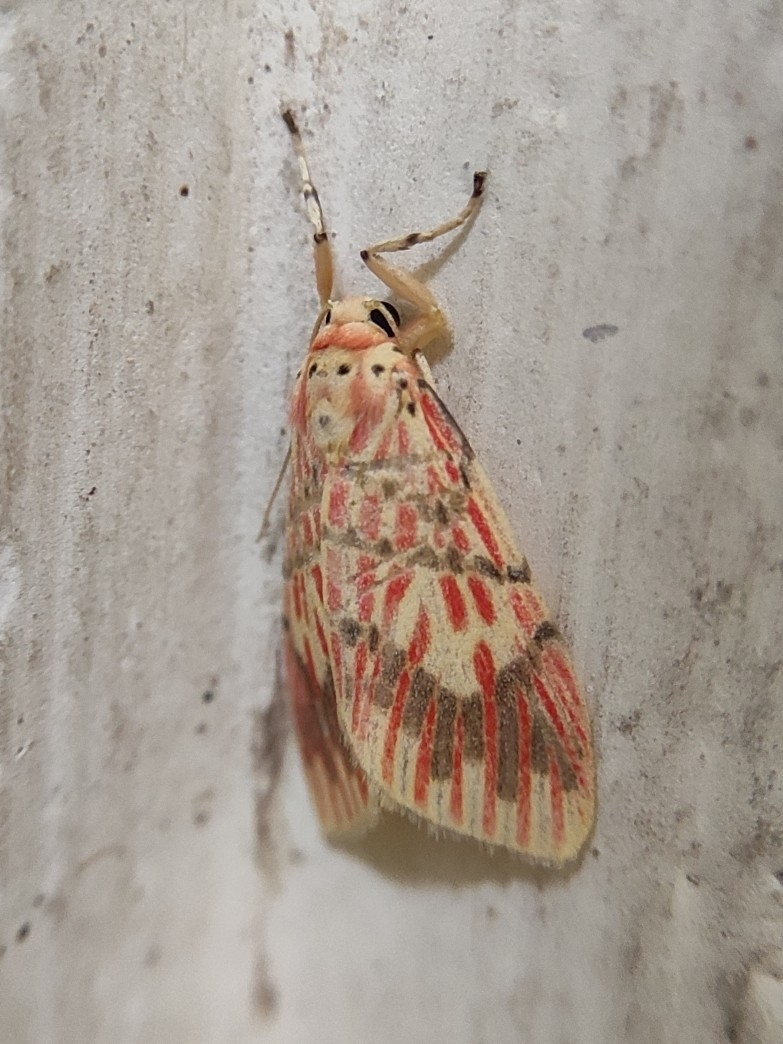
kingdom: Animalia
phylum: Arthropoda
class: Insecta
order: Lepidoptera
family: Erebidae
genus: Barsine
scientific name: Barsine defecta
